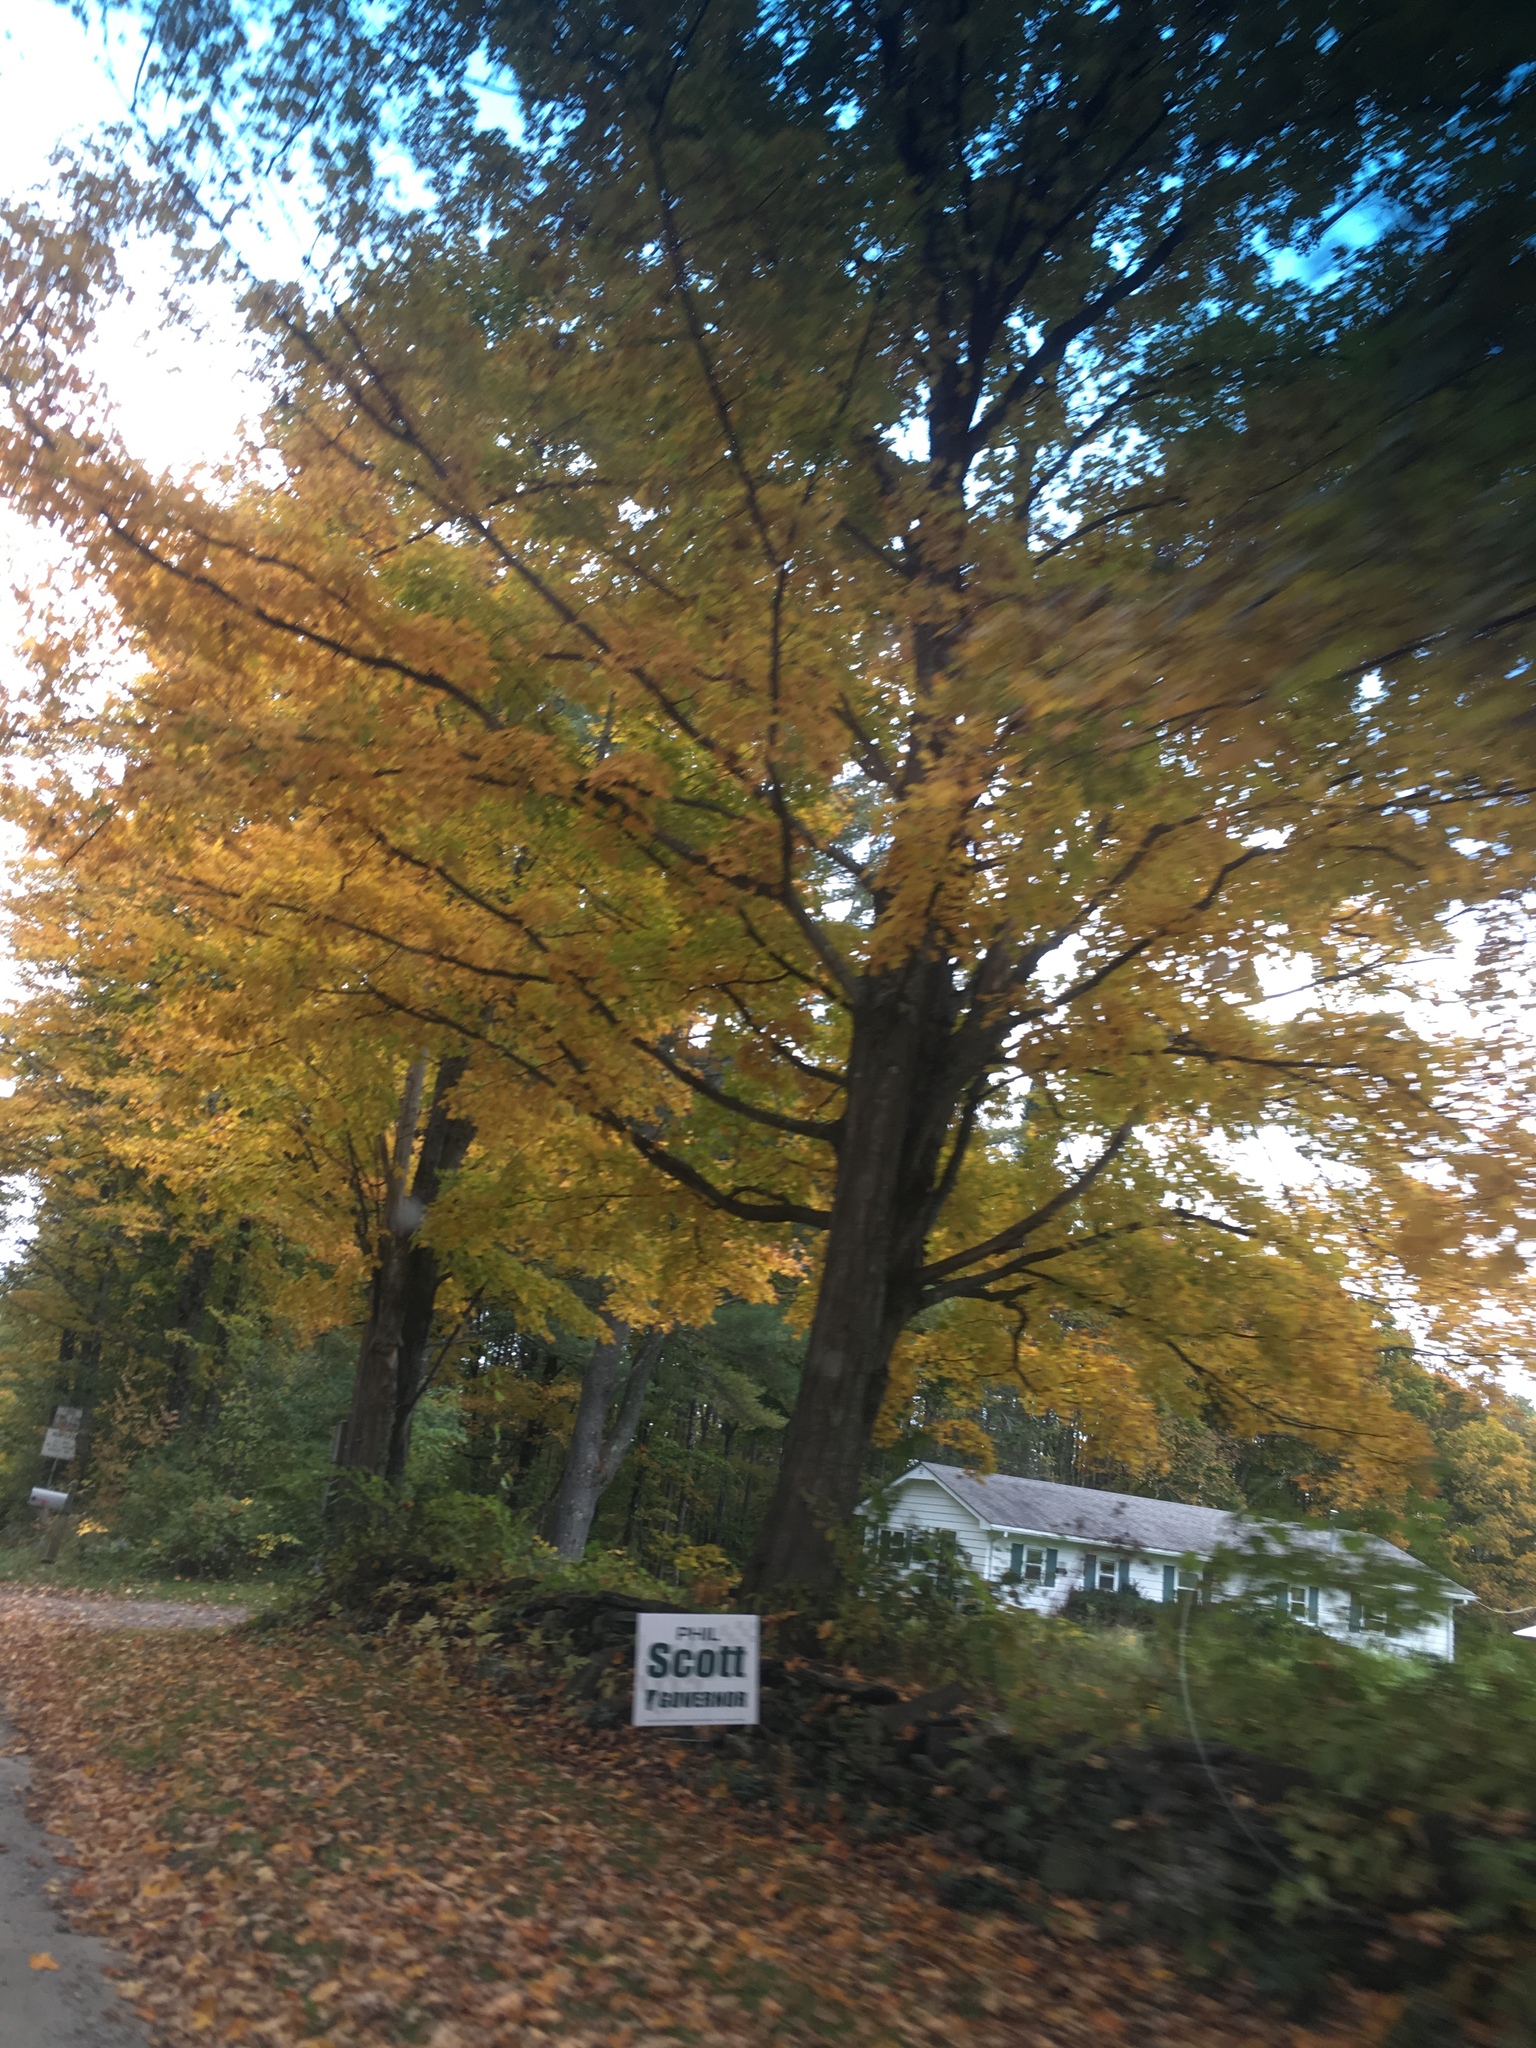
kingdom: Plantae
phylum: Tracheophyta
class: Magnoliopsida
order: Sapindales
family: Sapindaceae
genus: Acer
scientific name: Acer saccharum
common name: Sugar maple
